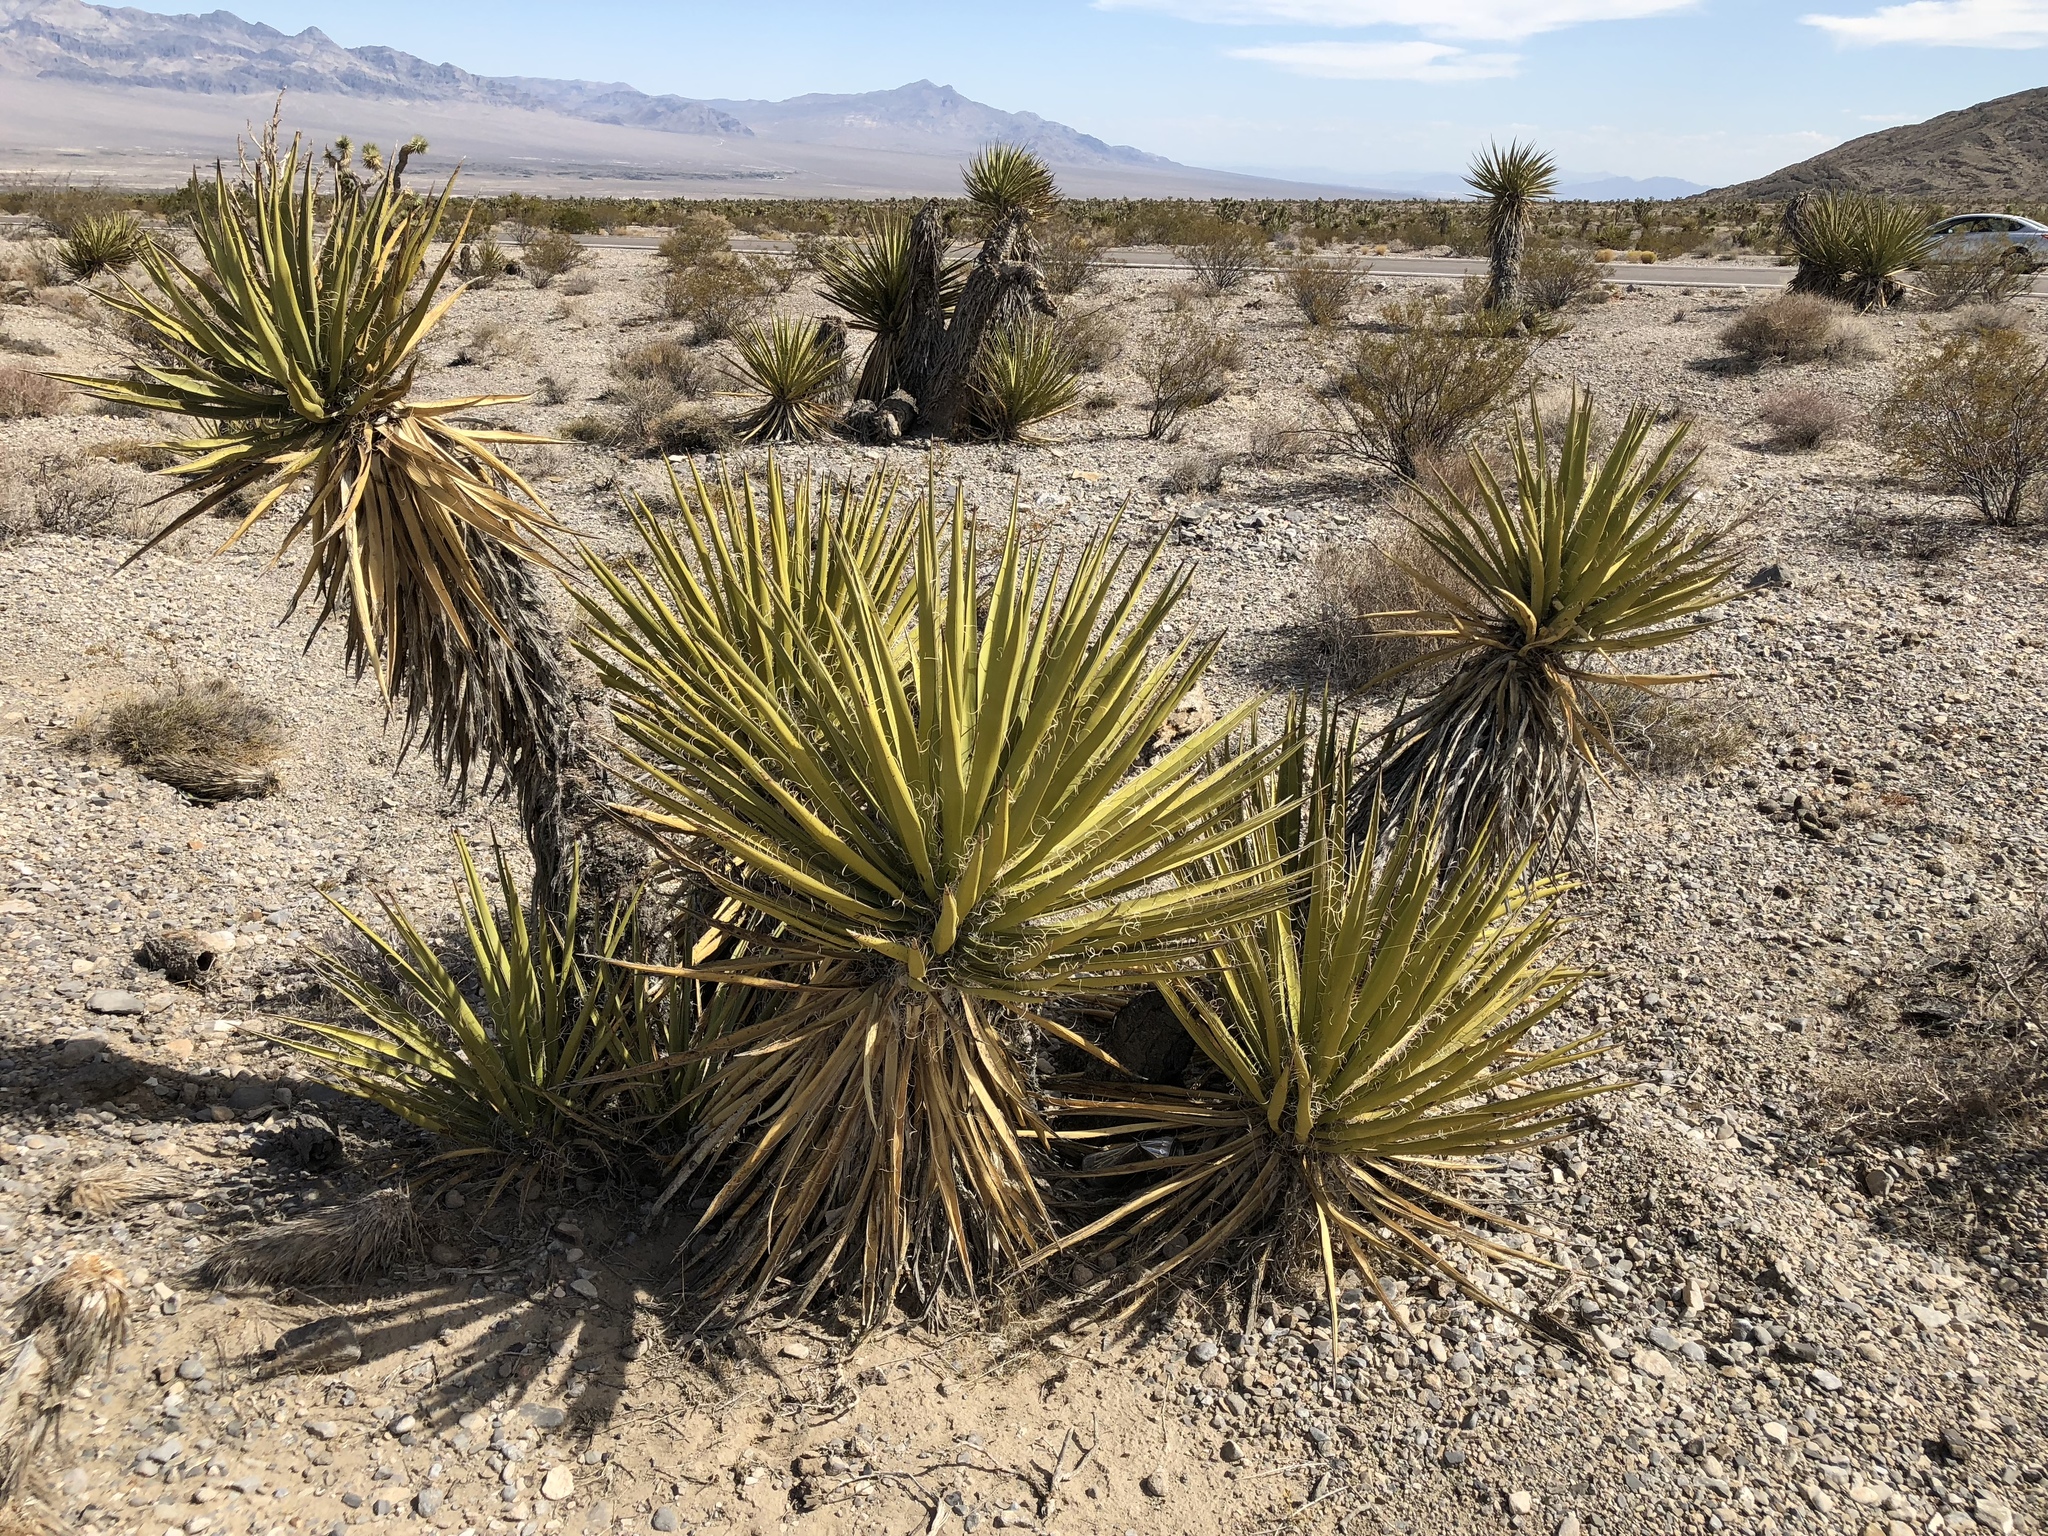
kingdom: Plantae
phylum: Tracheophyta
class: Liliopsida
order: Asparagales
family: Asparagaceae
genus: Yucca
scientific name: Yucca schidigera
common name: Mojave yucca
